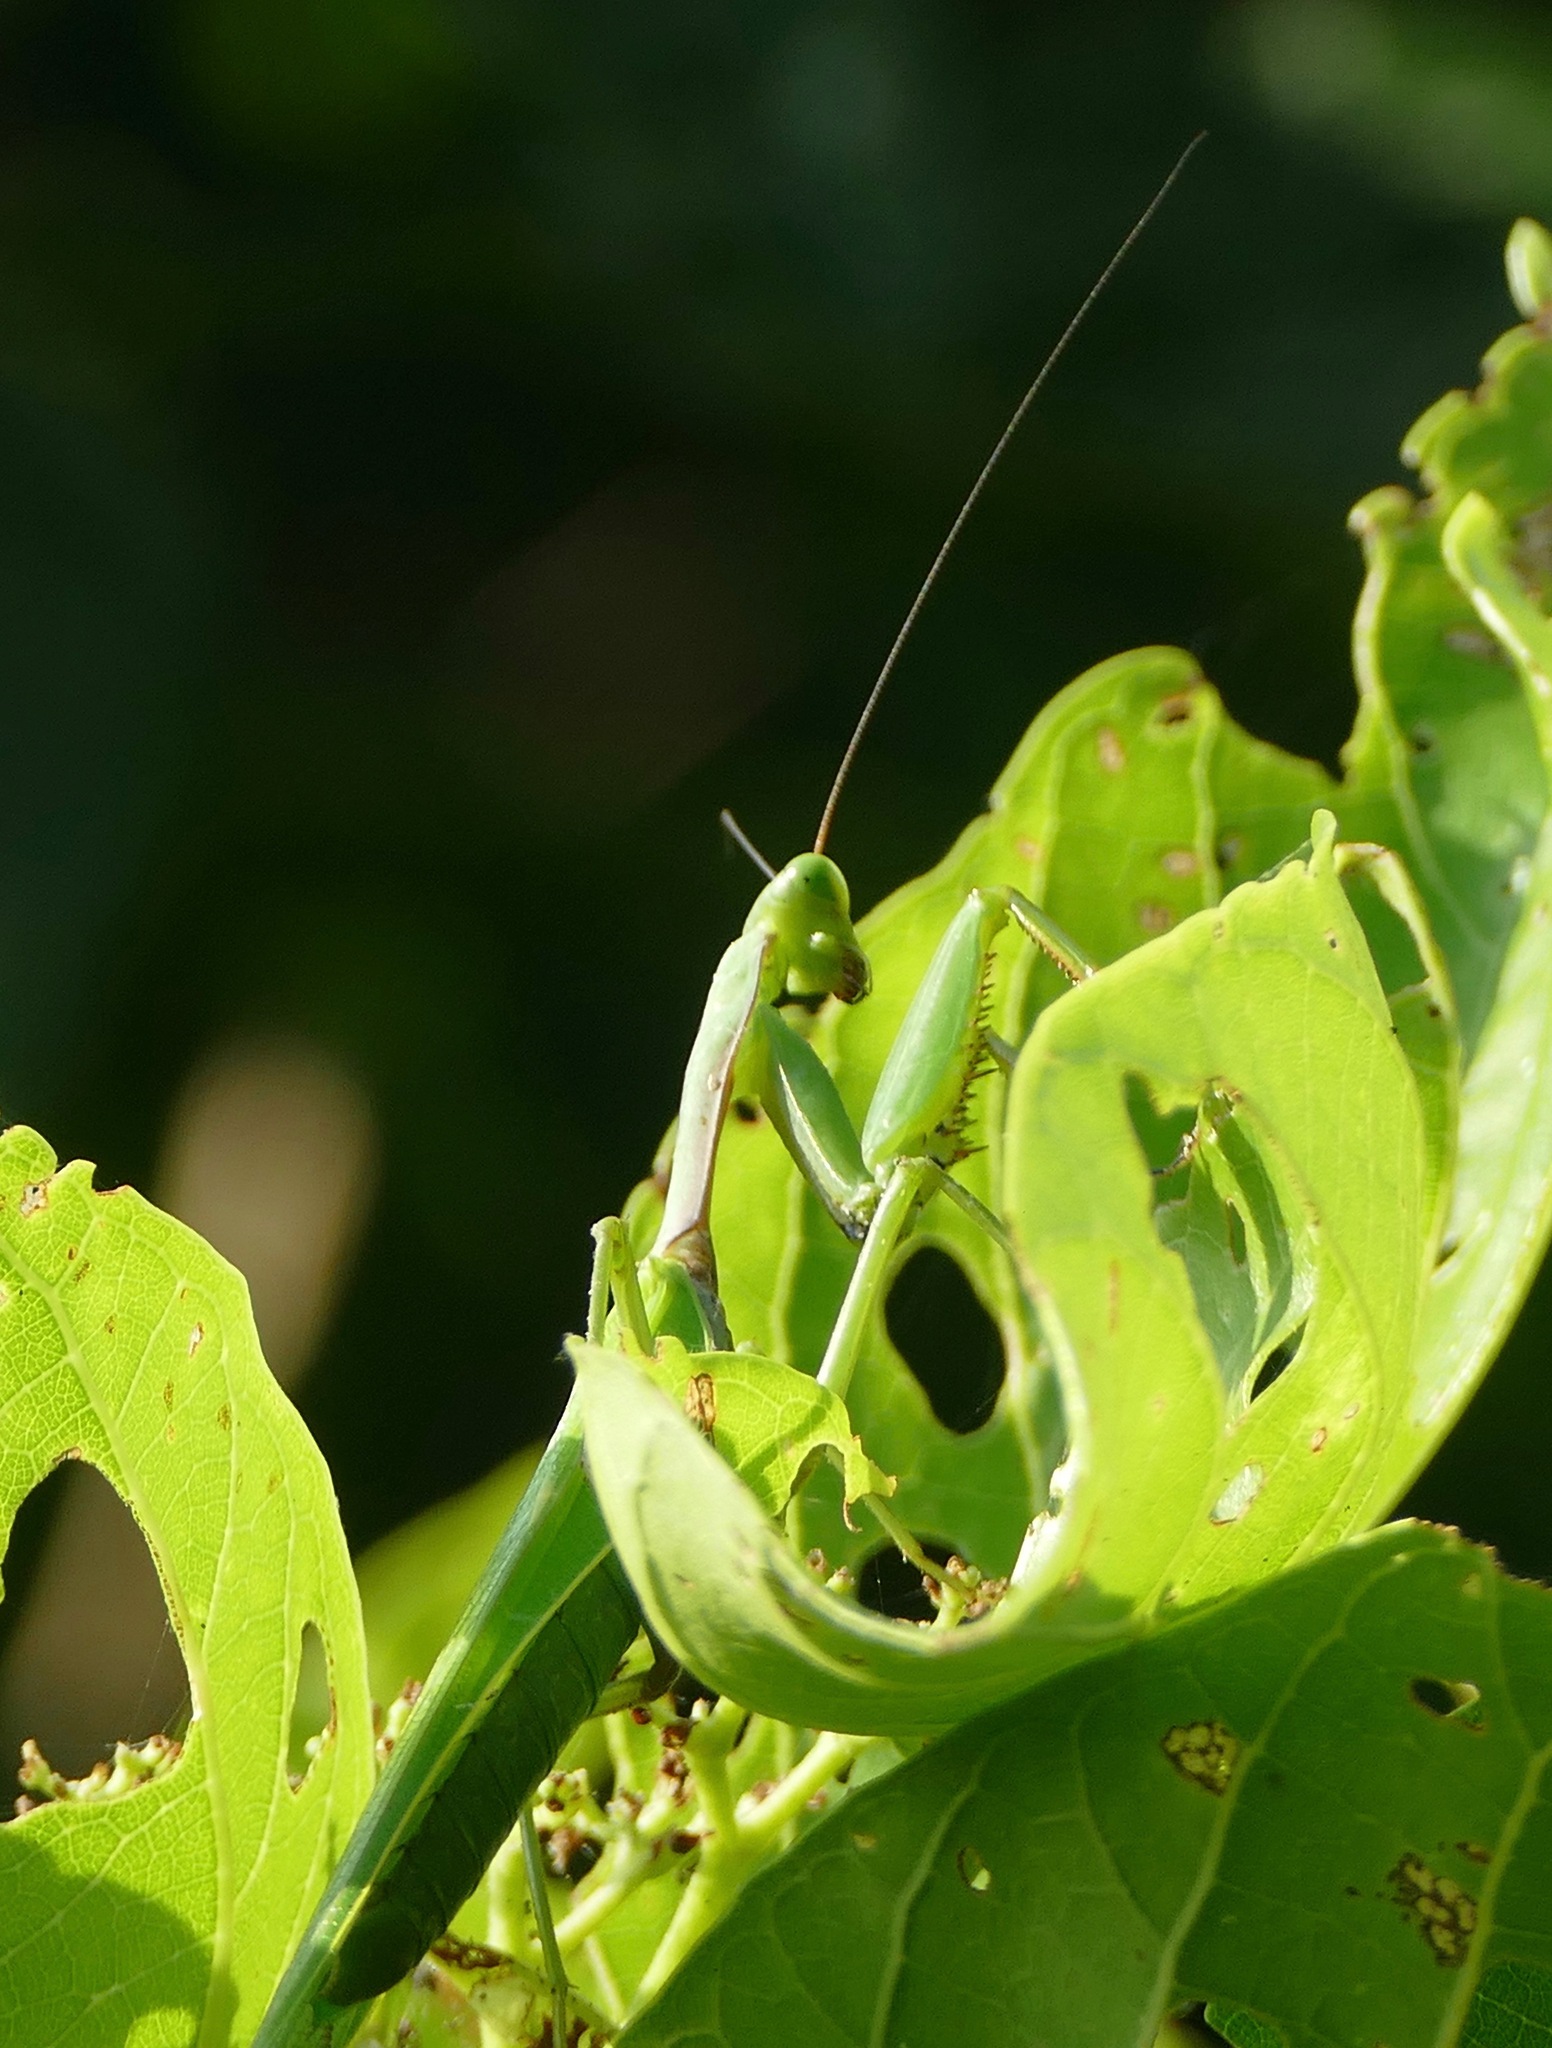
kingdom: Animalia
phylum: Arthropoda
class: Insecta
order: Mantodea
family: Mantidae
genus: Titanodula
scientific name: Titanodula formosana
